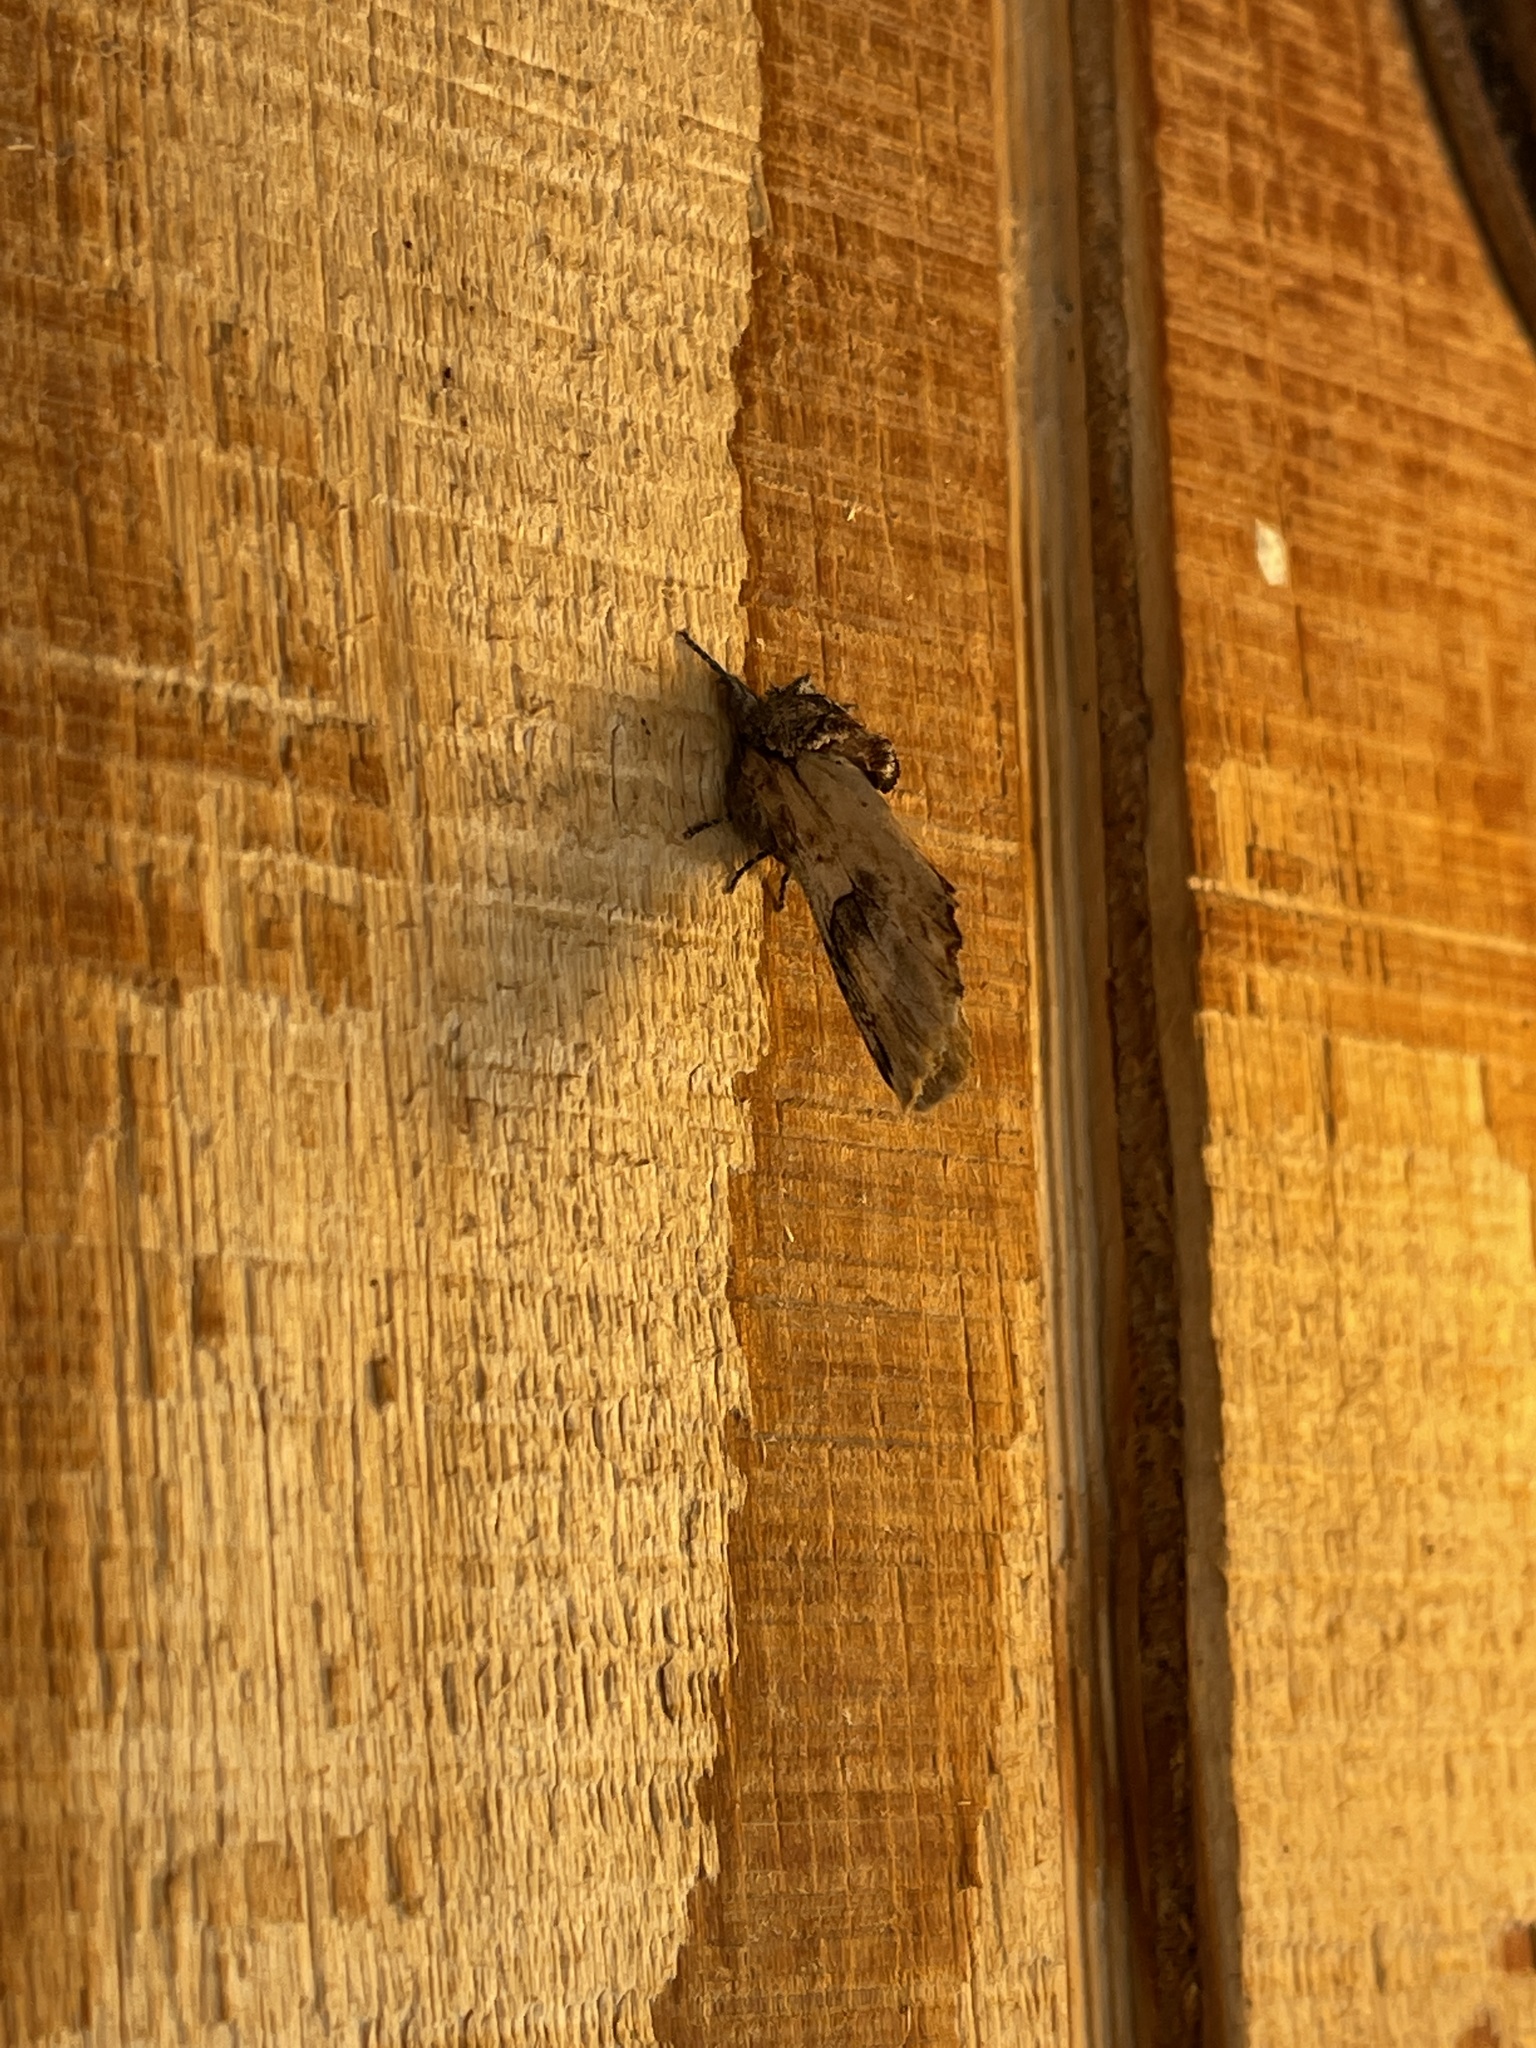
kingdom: Animalia
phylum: Arthropoda
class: Insecta
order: Lepidoptera
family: Notodontidae
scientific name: Notodontidae
